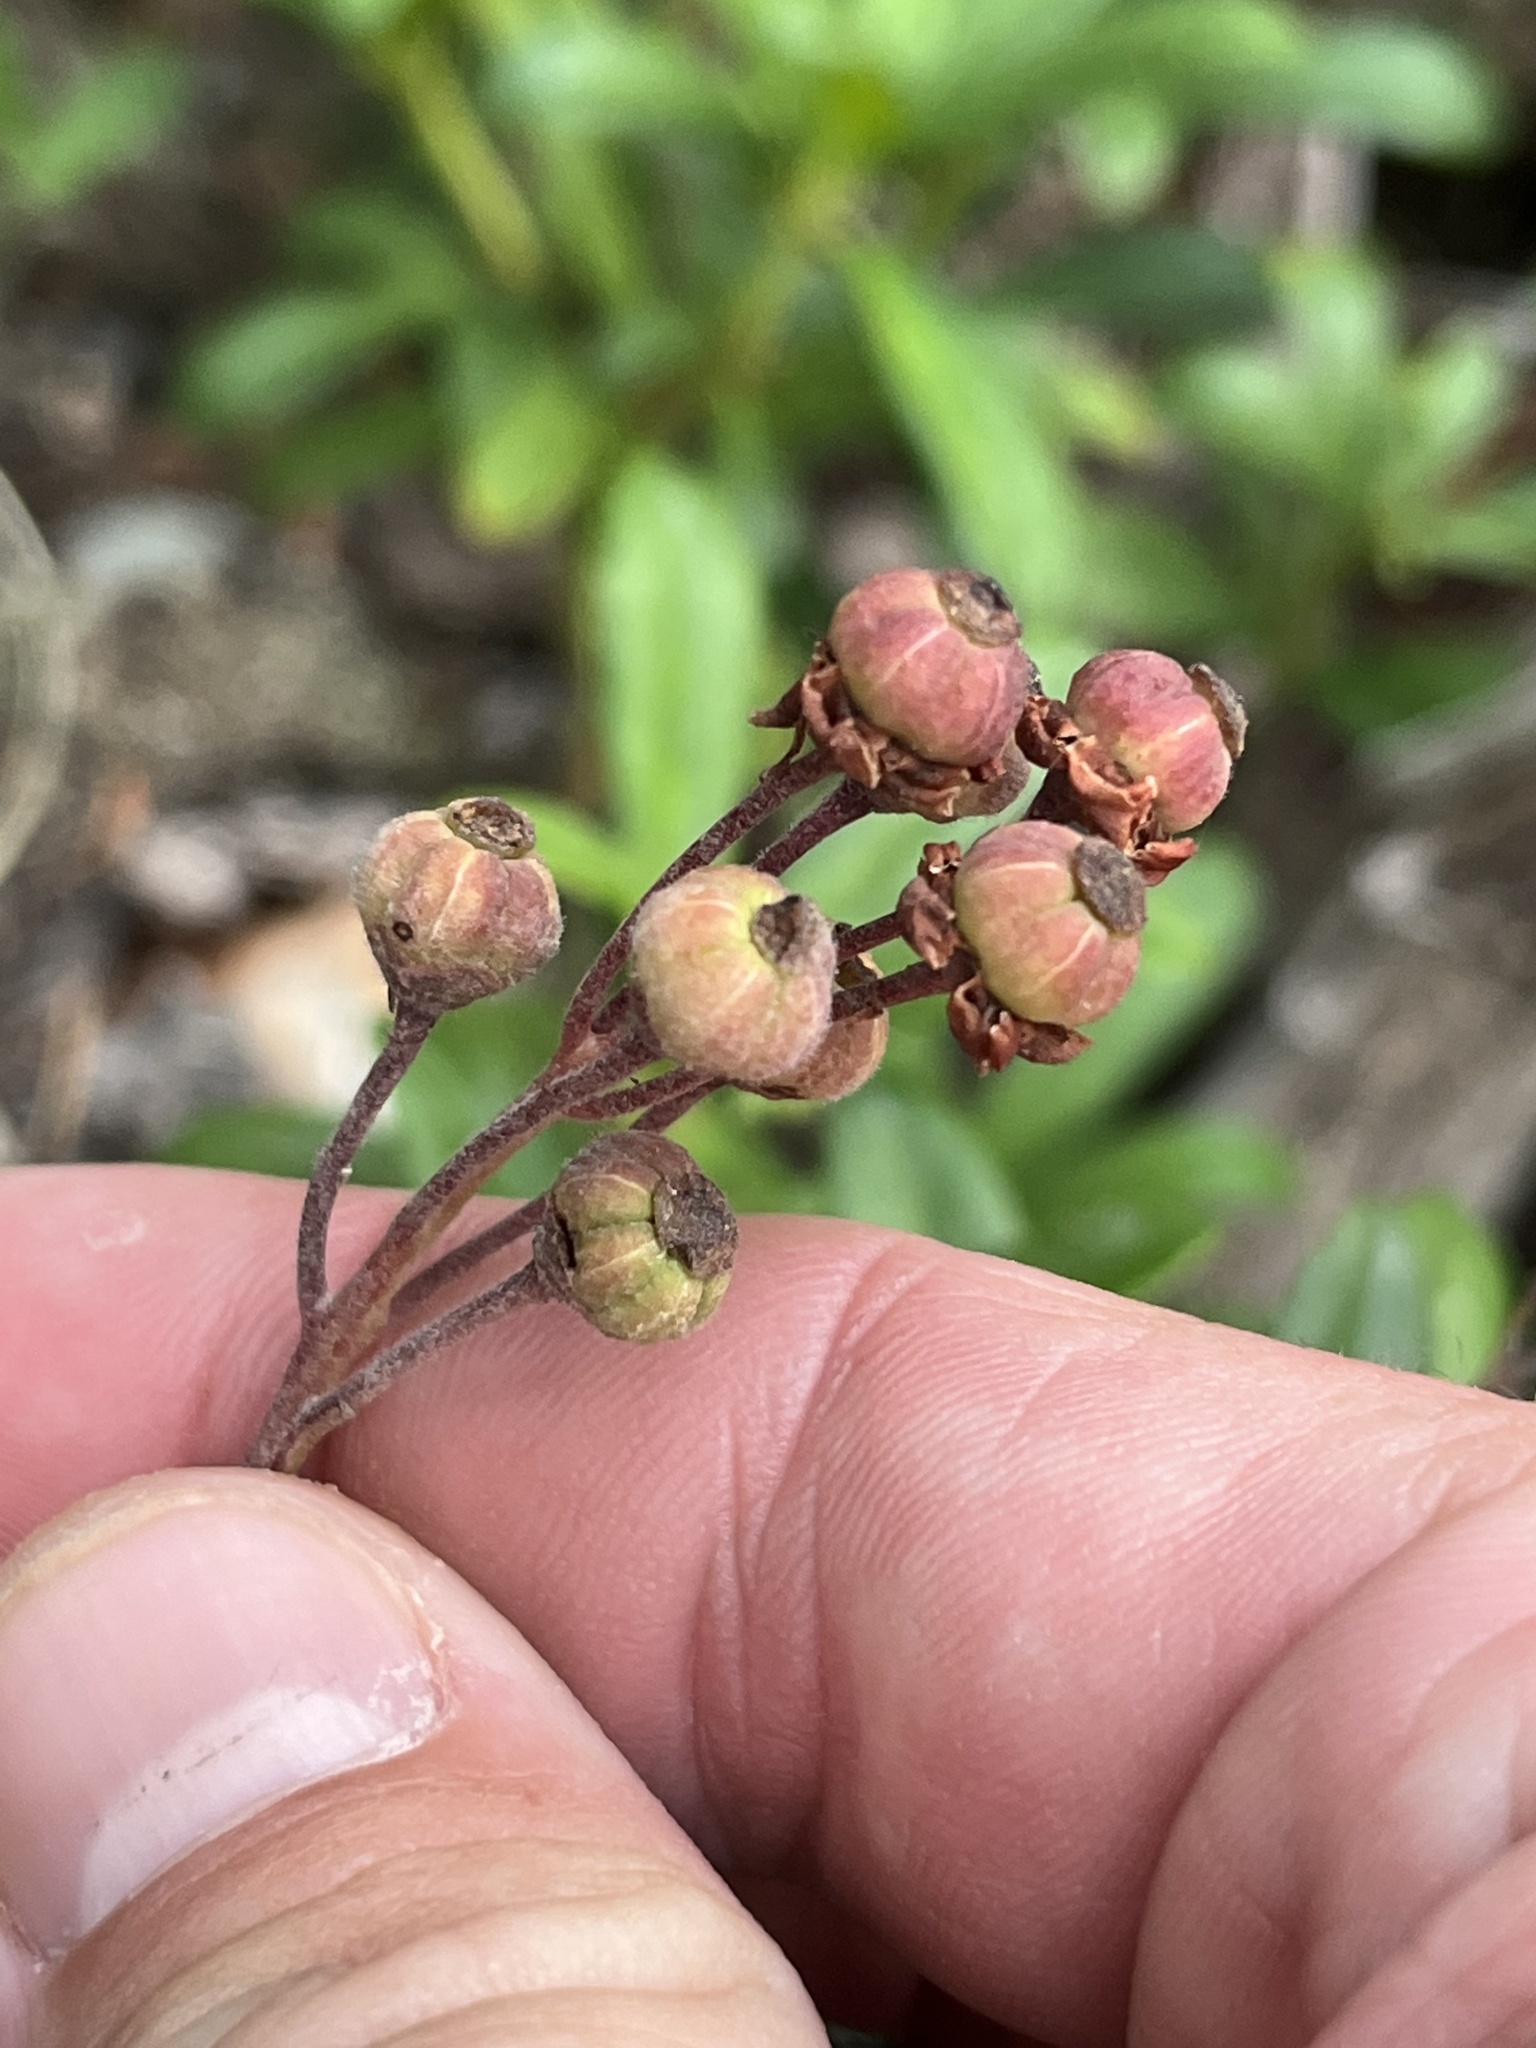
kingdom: Plantae
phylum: Tracheophyta
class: Magnoliopsida
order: Ericales
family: Ericaceae
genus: Chimaphila
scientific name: Chimaphila umbellata
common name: Pipsissewa
